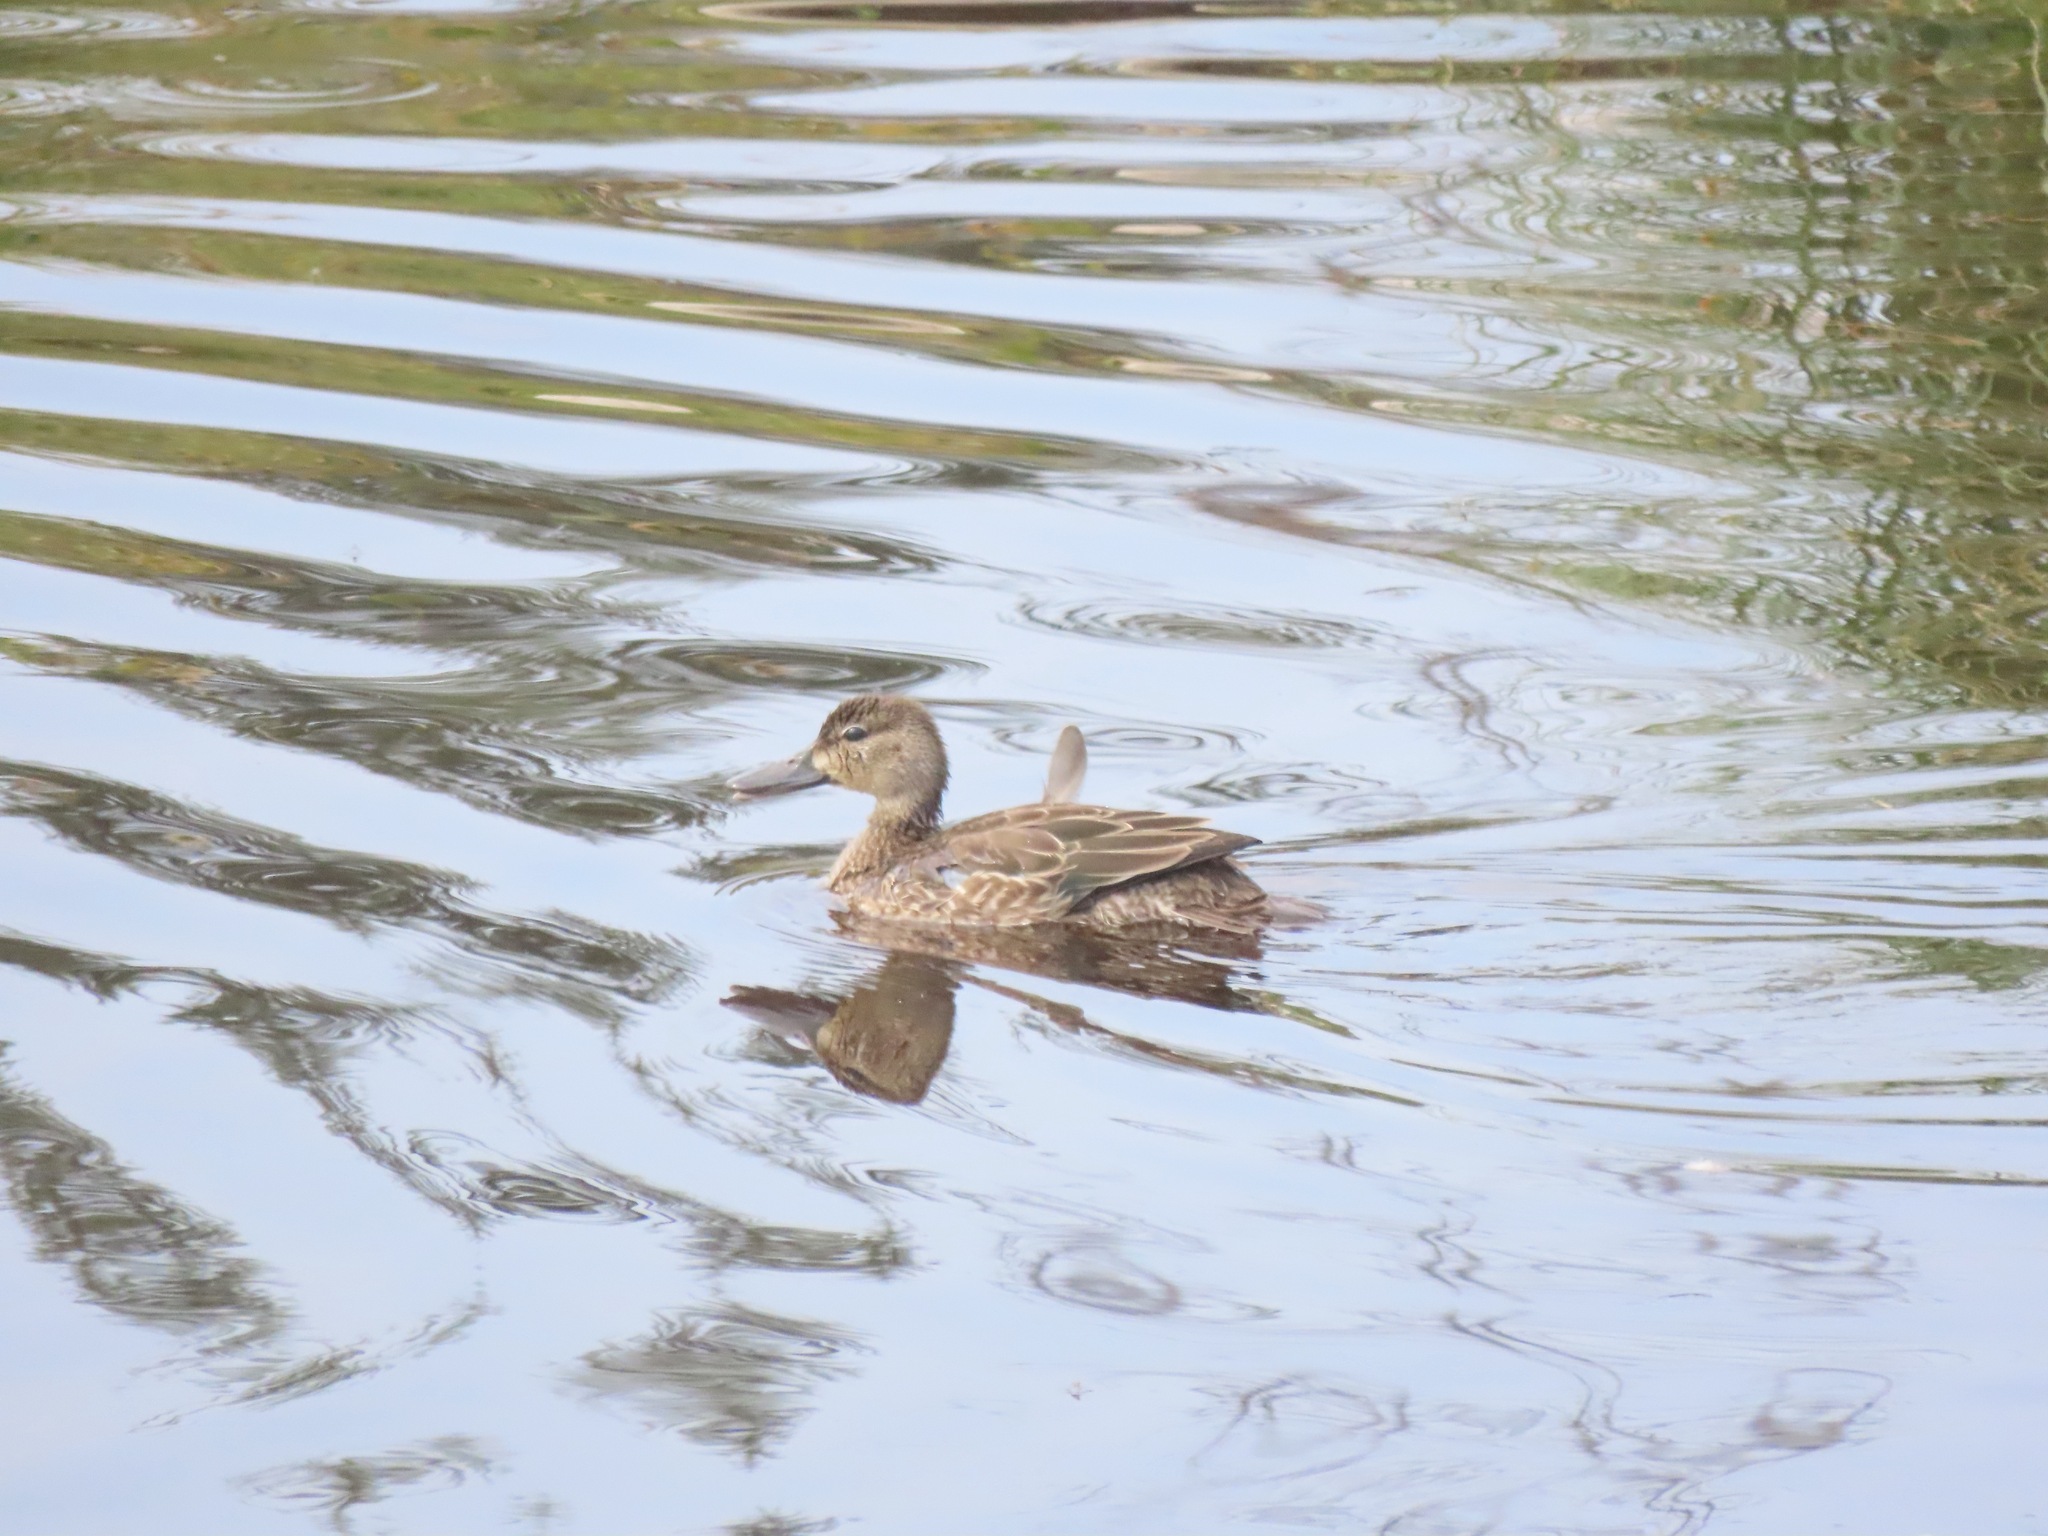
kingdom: Animalia
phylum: Chordata
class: Aves
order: Anseriformes
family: Anatidae
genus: Spatula
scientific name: Spatula discors
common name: Blue-winged teal
